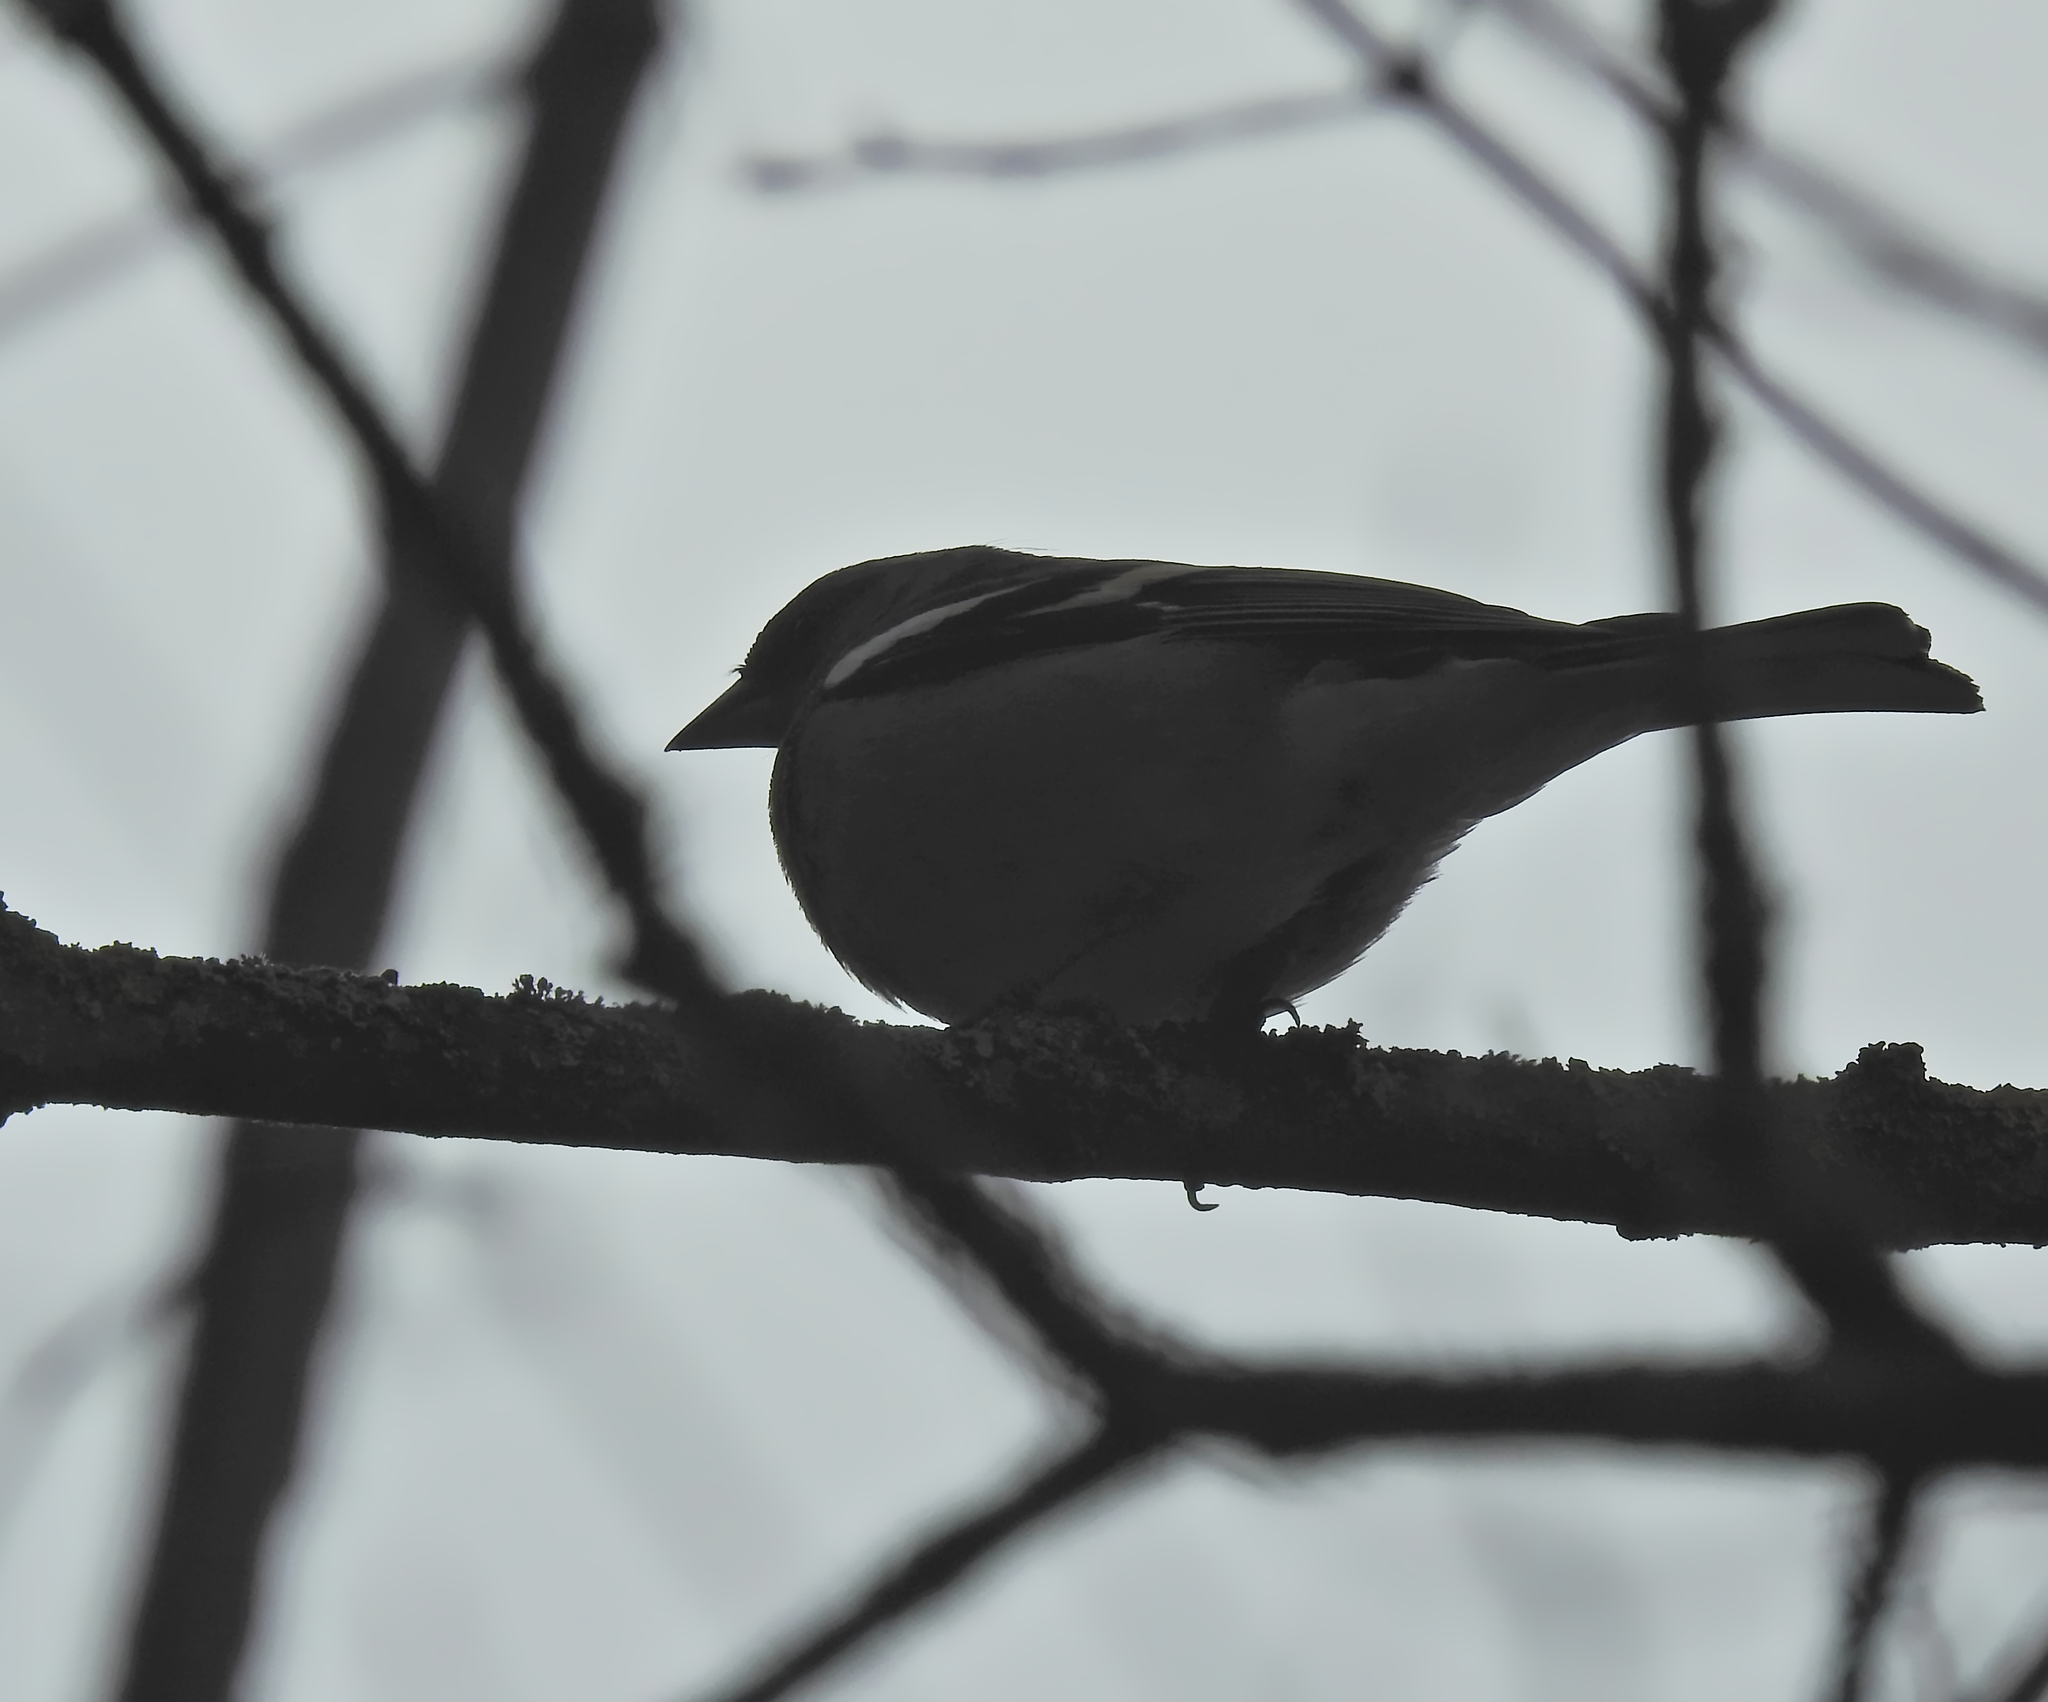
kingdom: Animalia
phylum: Chordata
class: Aves
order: Passeriformes
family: Fringillidae
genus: Fringilla
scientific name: Fringilla coelebs
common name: Common chaffinch
